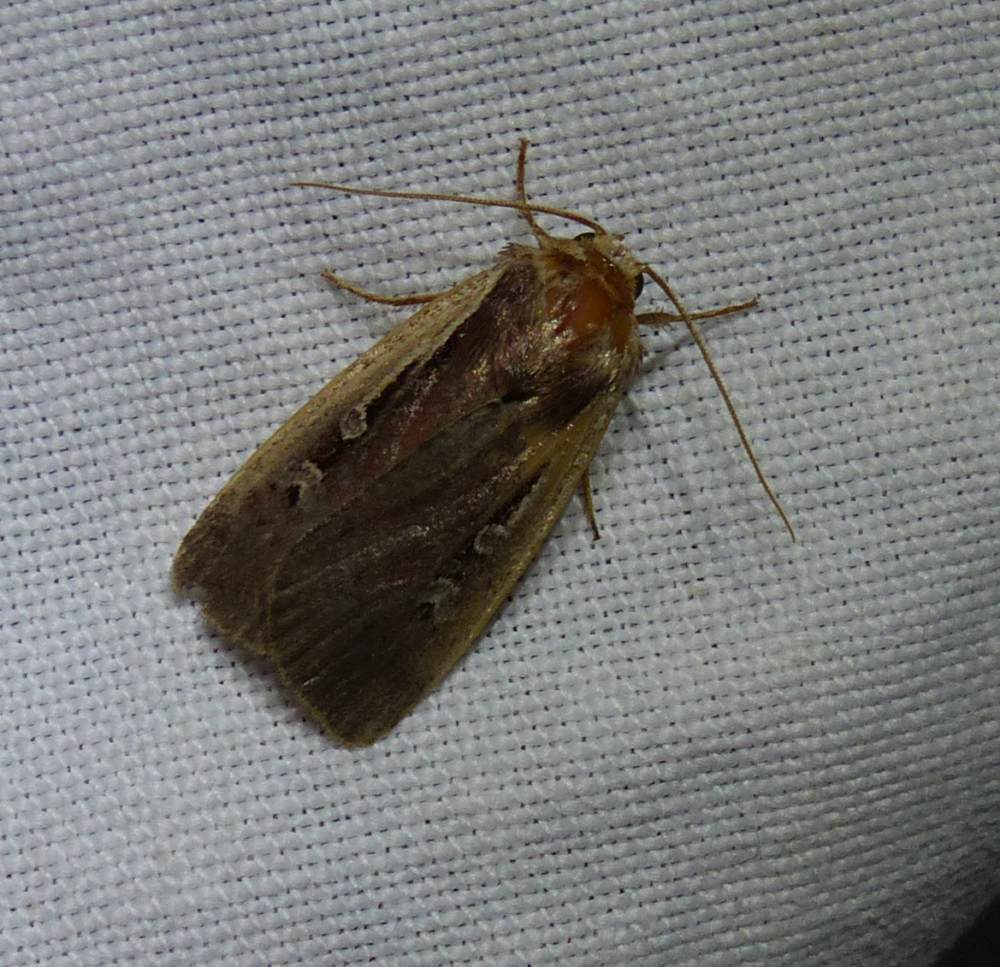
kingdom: Animalia
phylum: Arthropoda
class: Insecta
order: Lepidoptera
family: Noctuidae
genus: Ochropleura
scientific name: Ochropleura implecta
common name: Flame-shouldered dart
